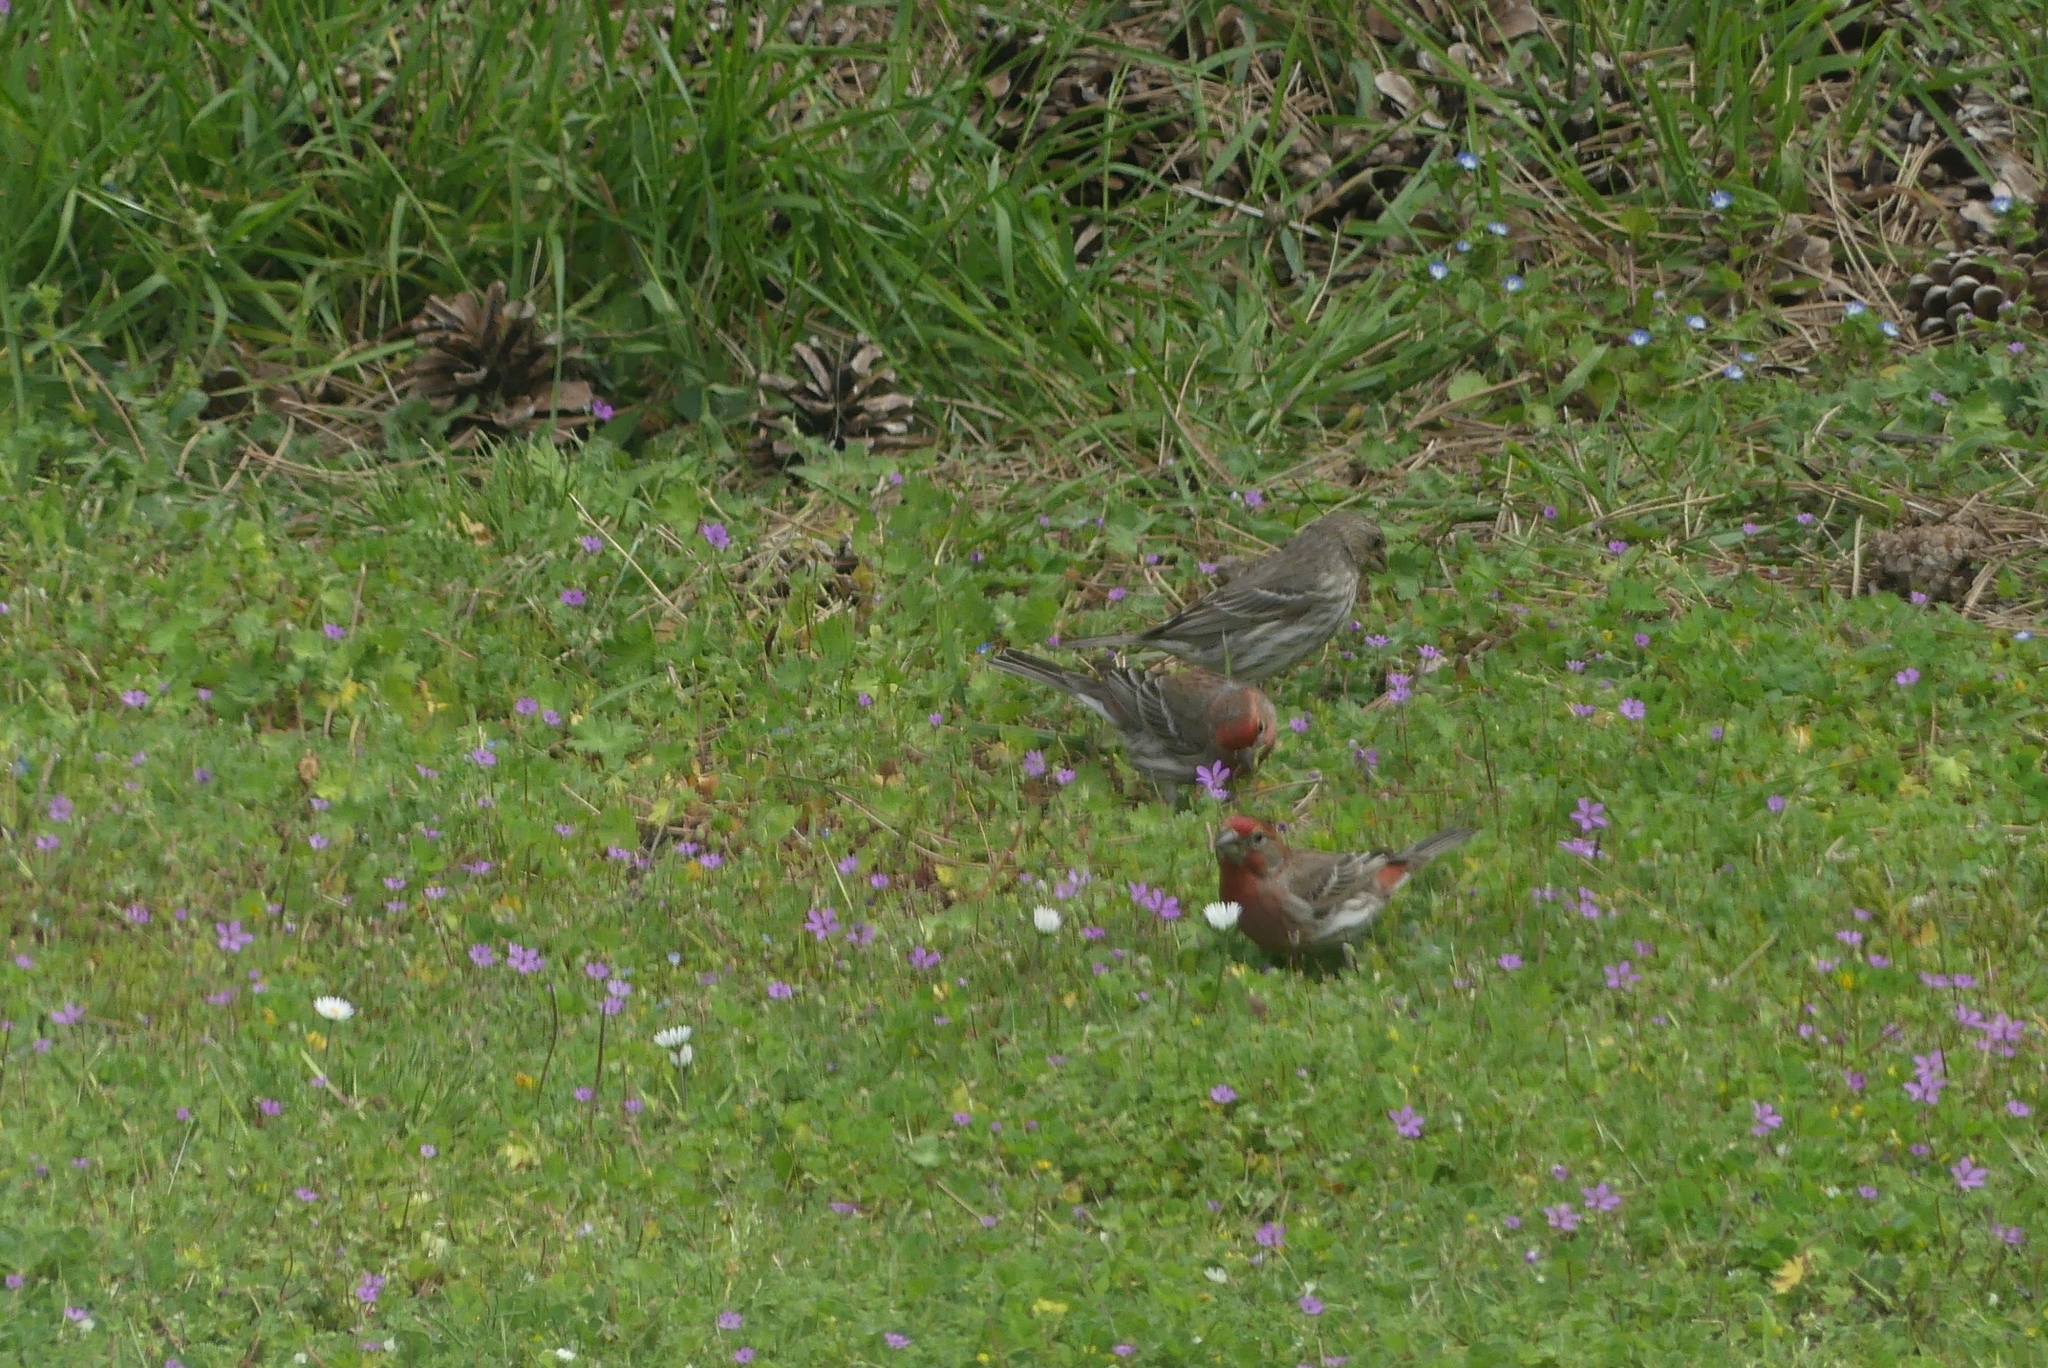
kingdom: Animalia
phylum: Chordata
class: Aves
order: Passeriformes
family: Fringillidae
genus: Haemorhous
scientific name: Haemorhous mexicanus
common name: House finch
